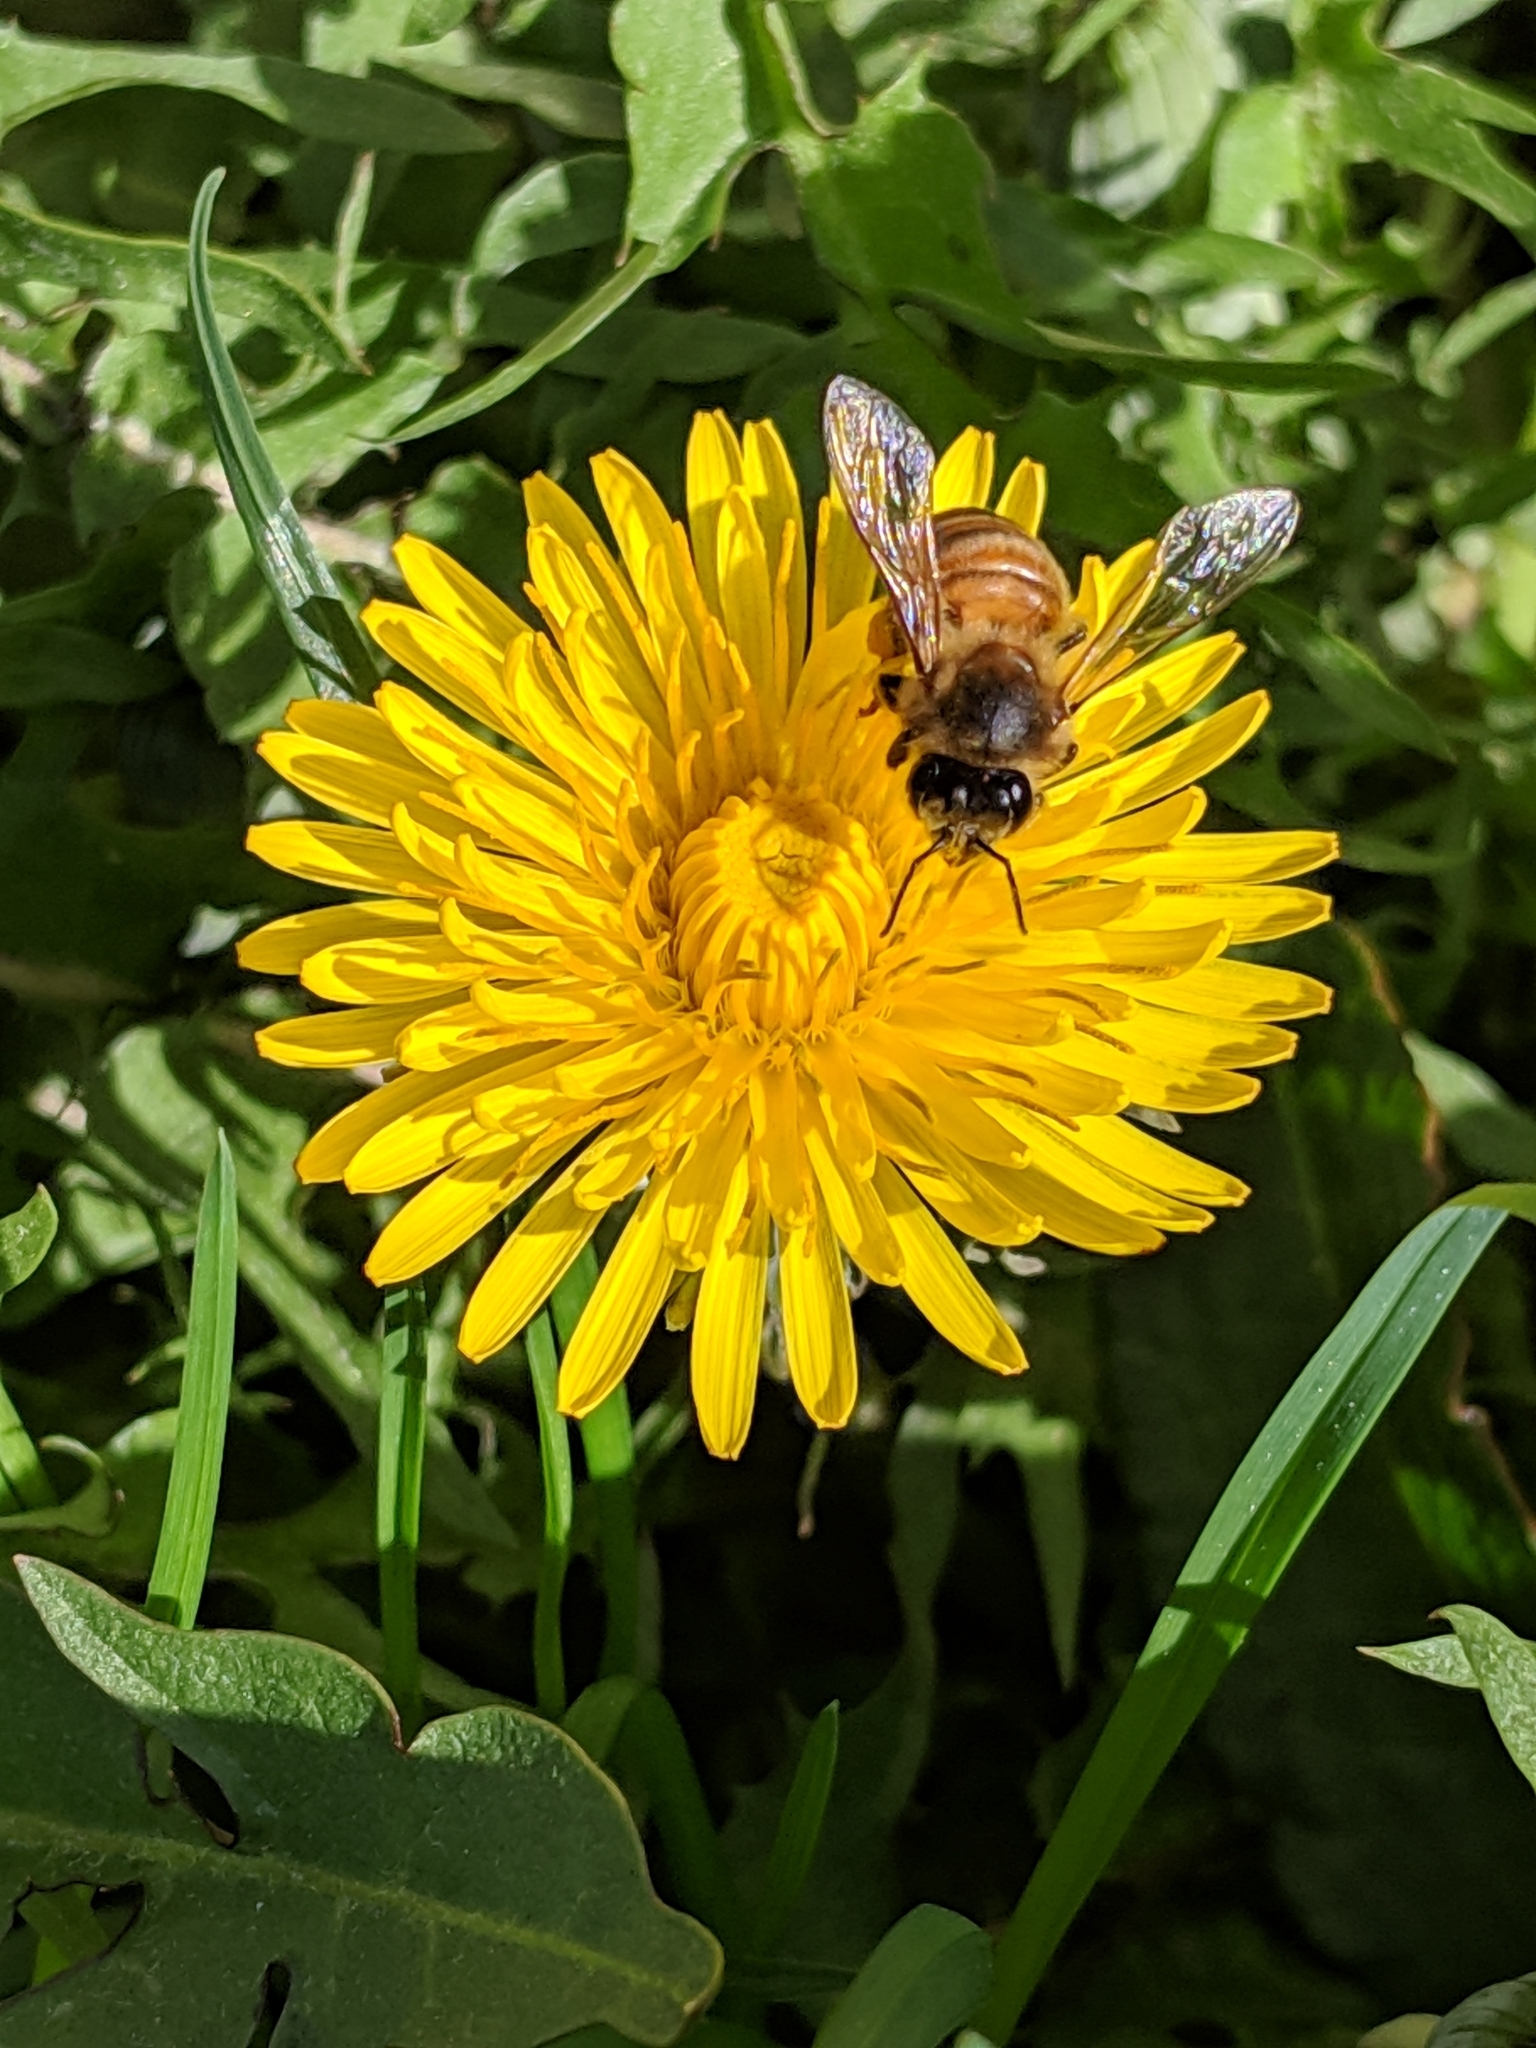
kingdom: Animalia
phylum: Arthropoda
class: Insecta
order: Hymenoptera
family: Apidae
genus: Apis
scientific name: Apis mellifera
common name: Honey bee
